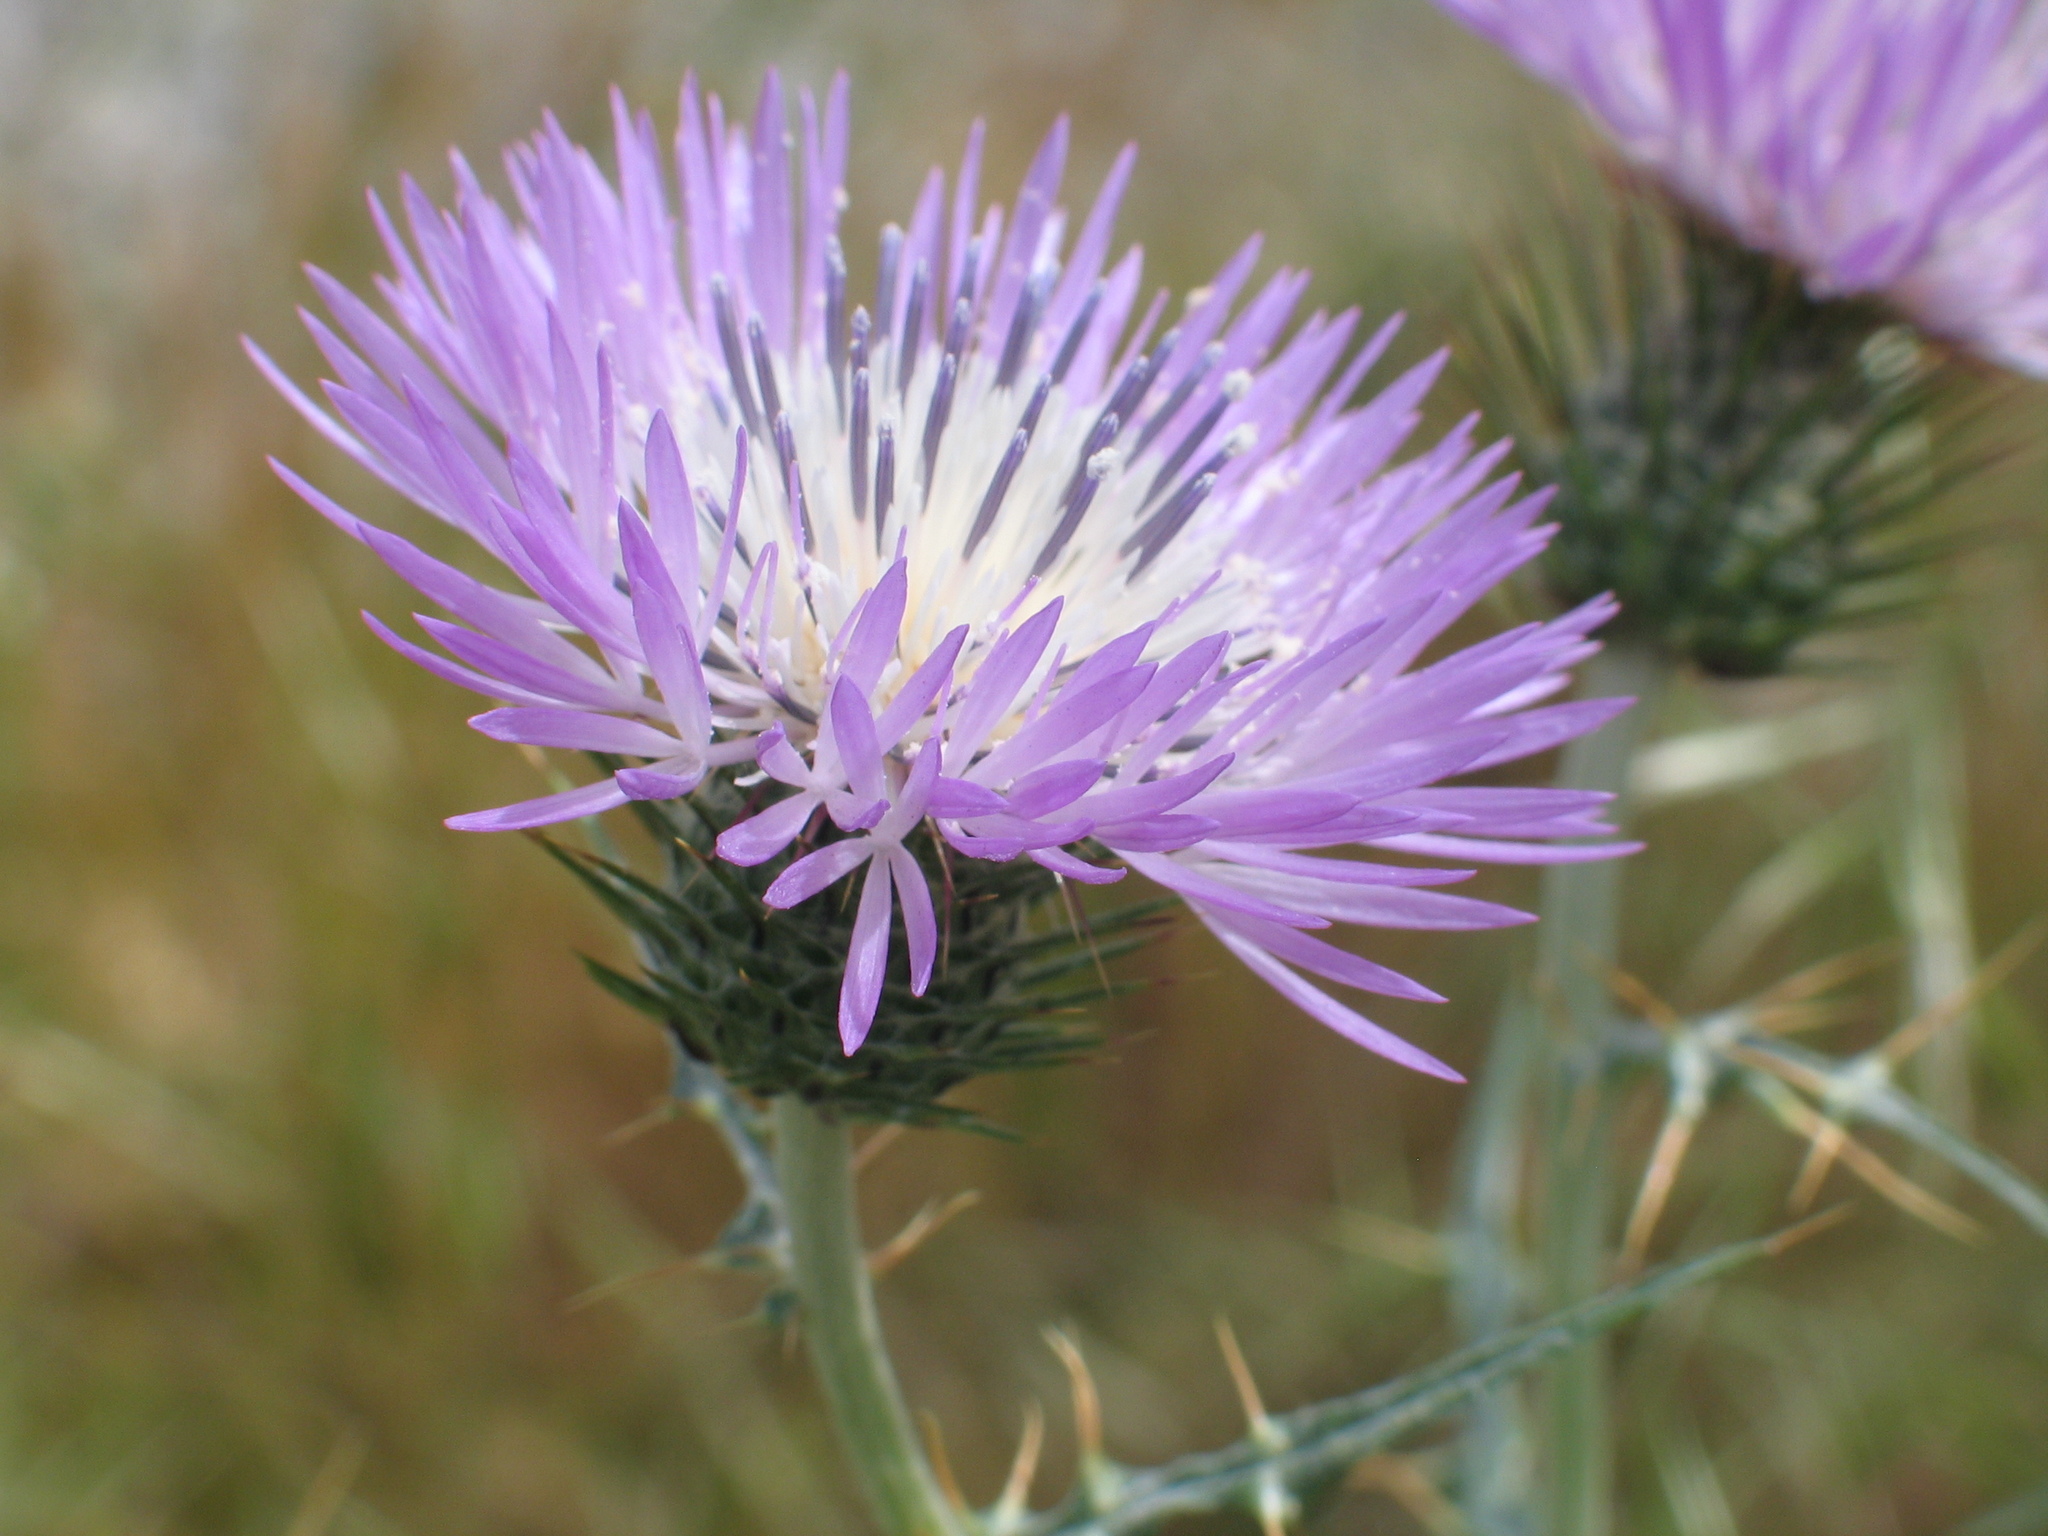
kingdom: Plantae
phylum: Tracheophyta
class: Magnoliopsida
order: Asterales
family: Asteraceae
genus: Galactites
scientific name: Galactites tomentosa
